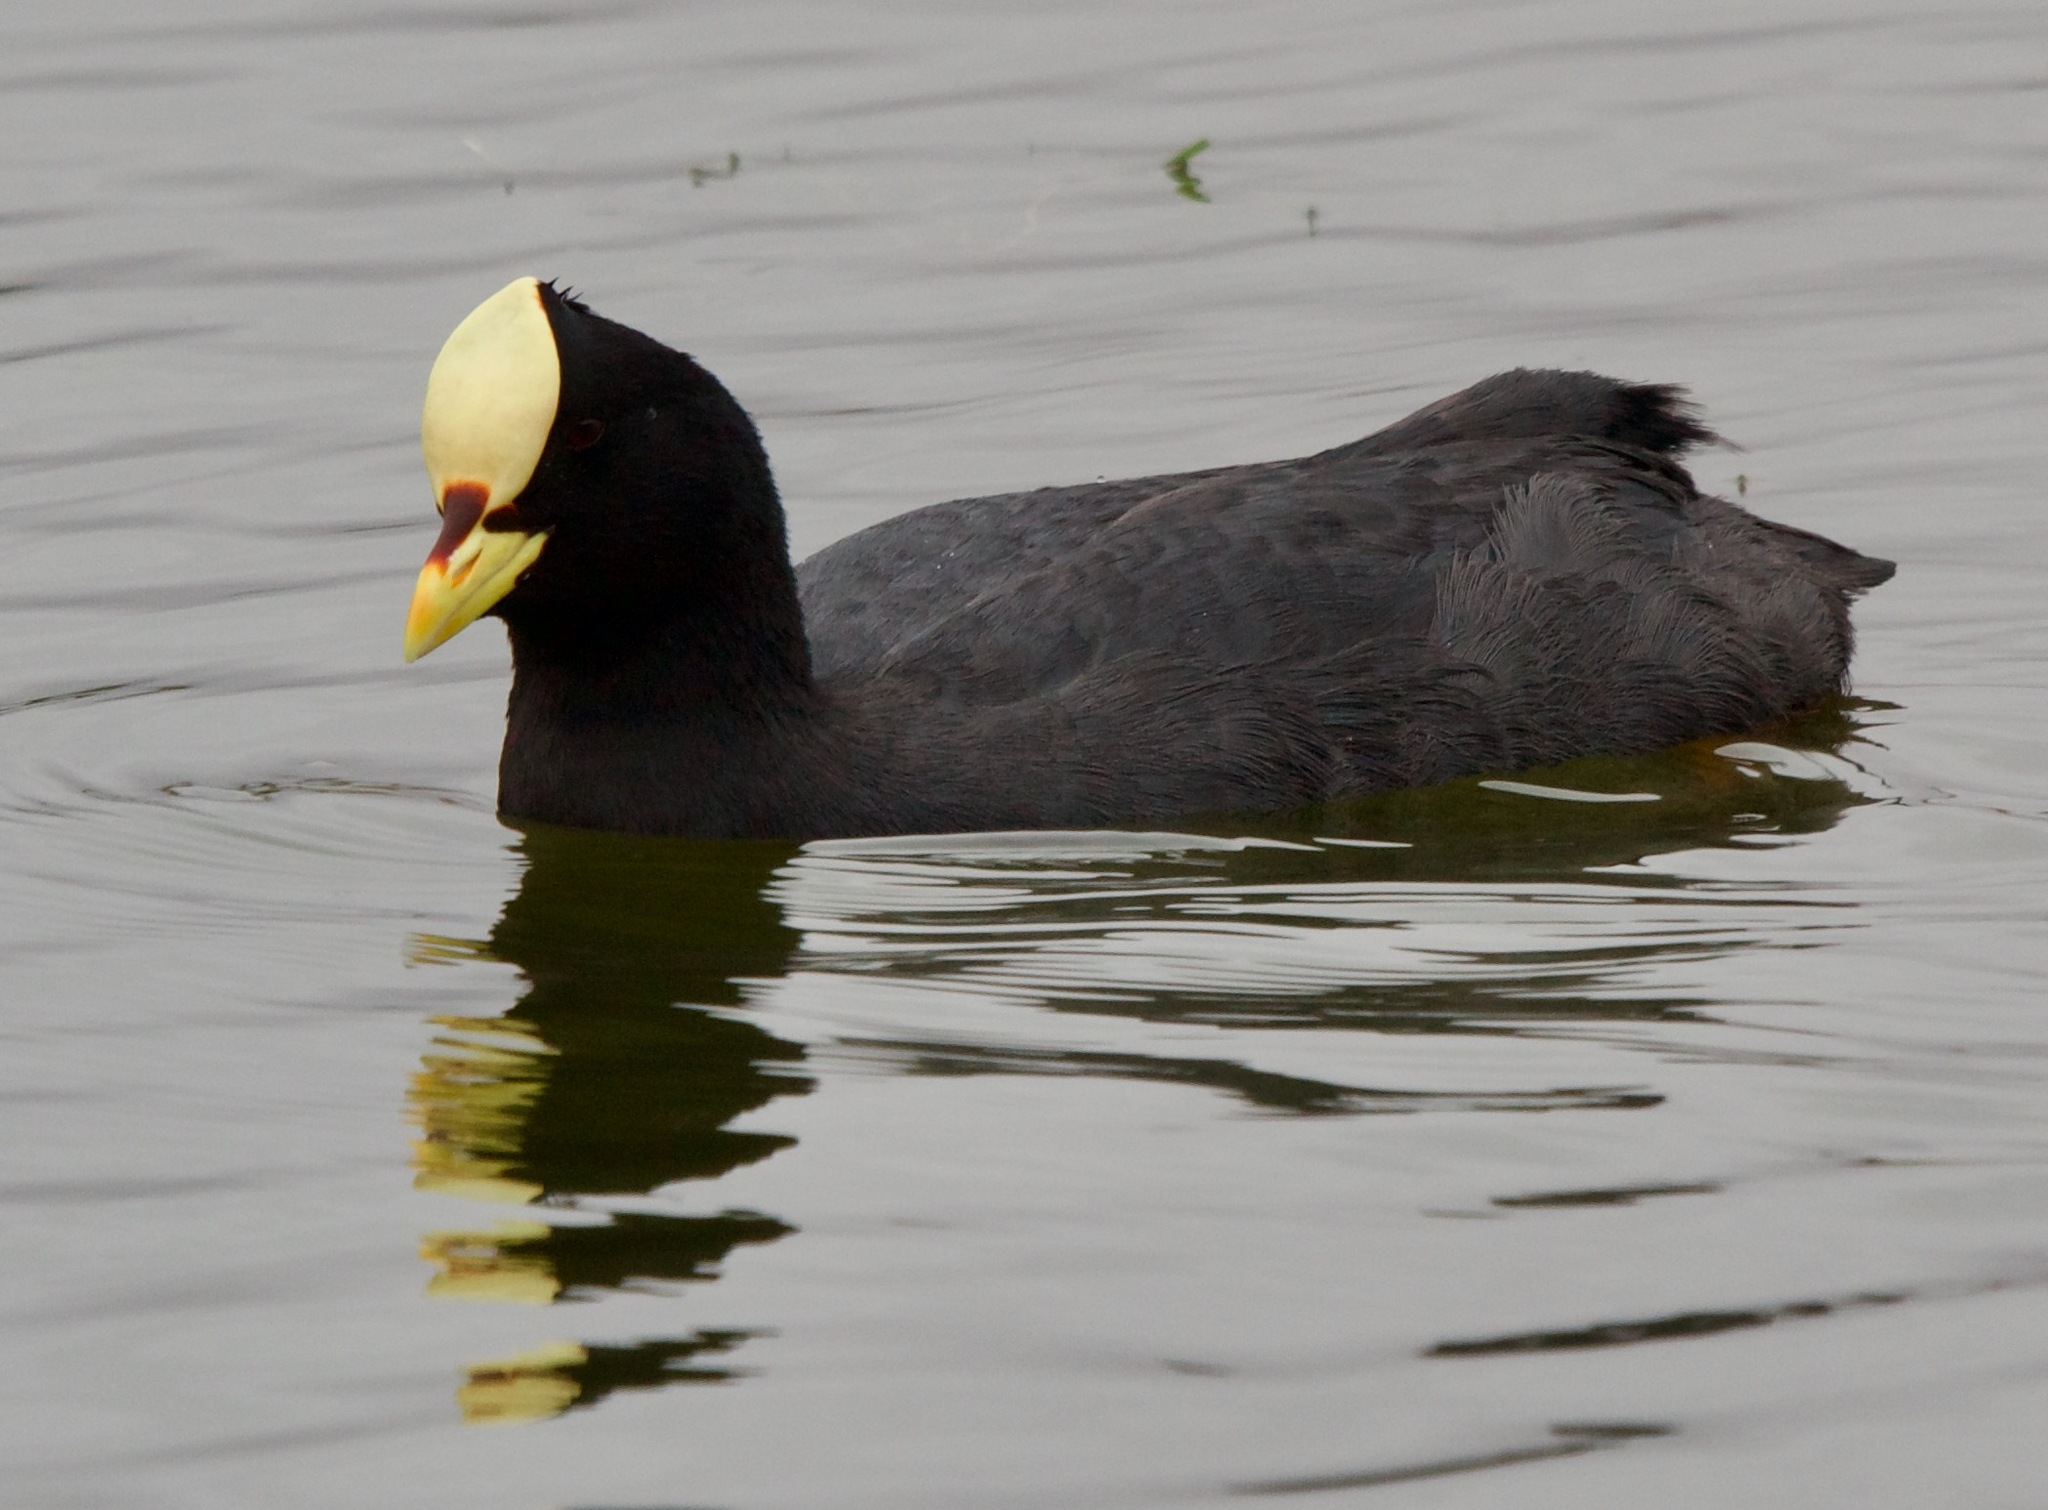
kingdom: Animalia
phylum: Chordata
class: Aves
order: Gruiformes
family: Rallidae
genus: Fulica
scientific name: Fulica armillata
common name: Red-gartered coot
